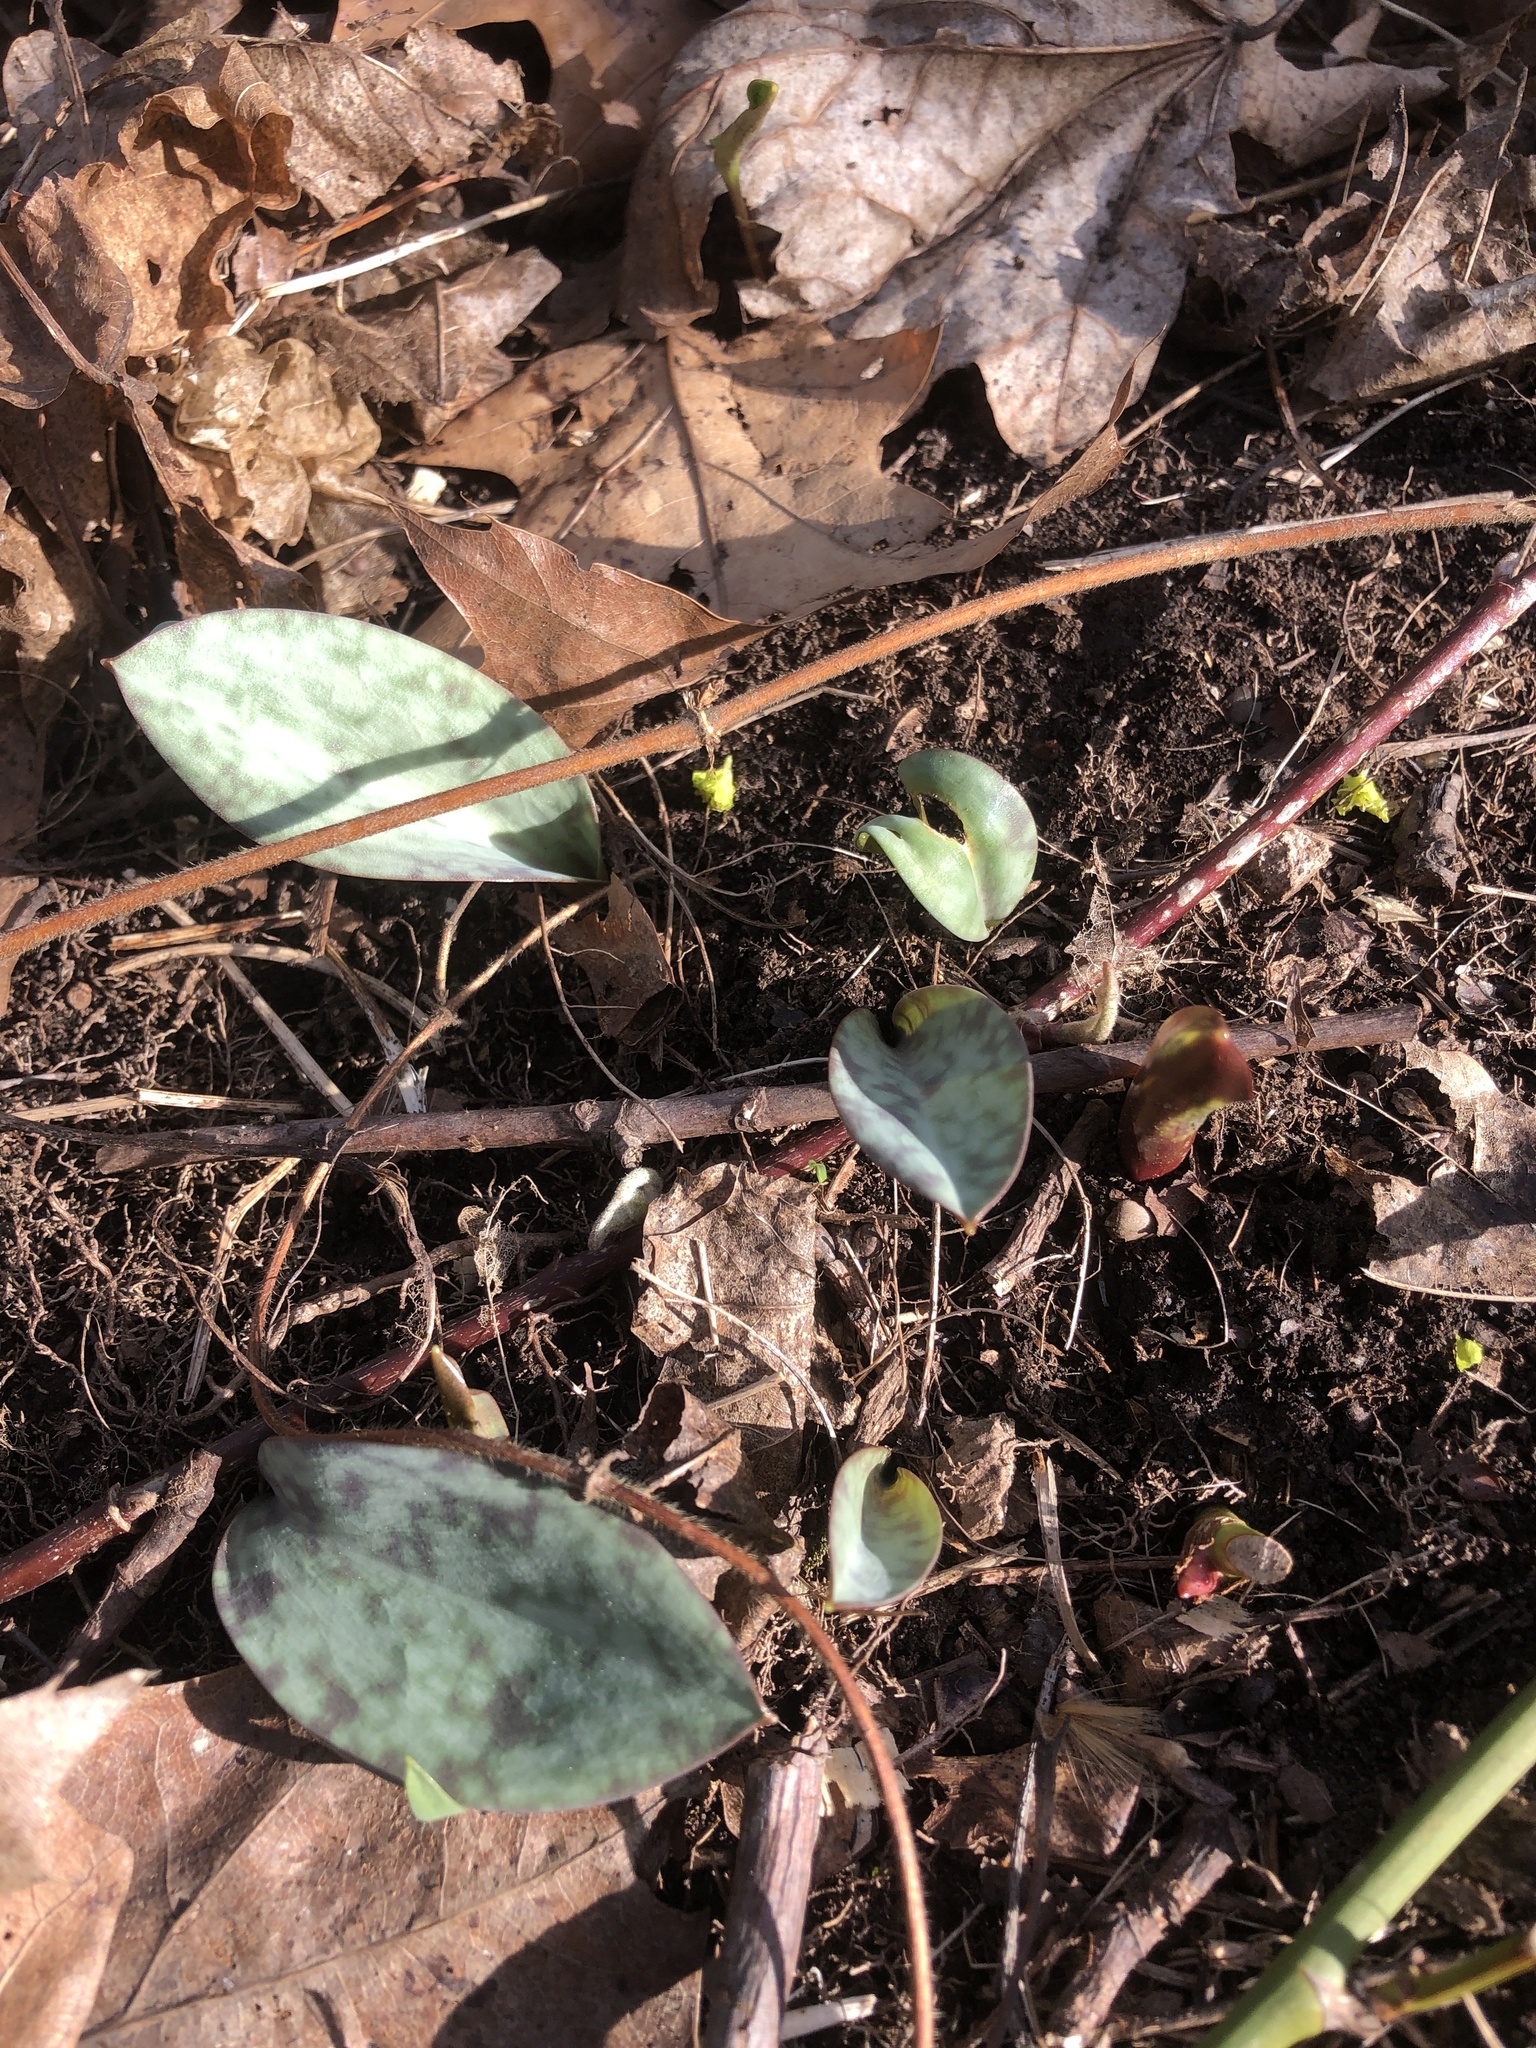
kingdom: Plantae
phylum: Tracheophyta
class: Liliopsida
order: Liliales
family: Liliaceae
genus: Erythronium
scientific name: Erythronium americanum
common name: Yellow adder's-tongue
